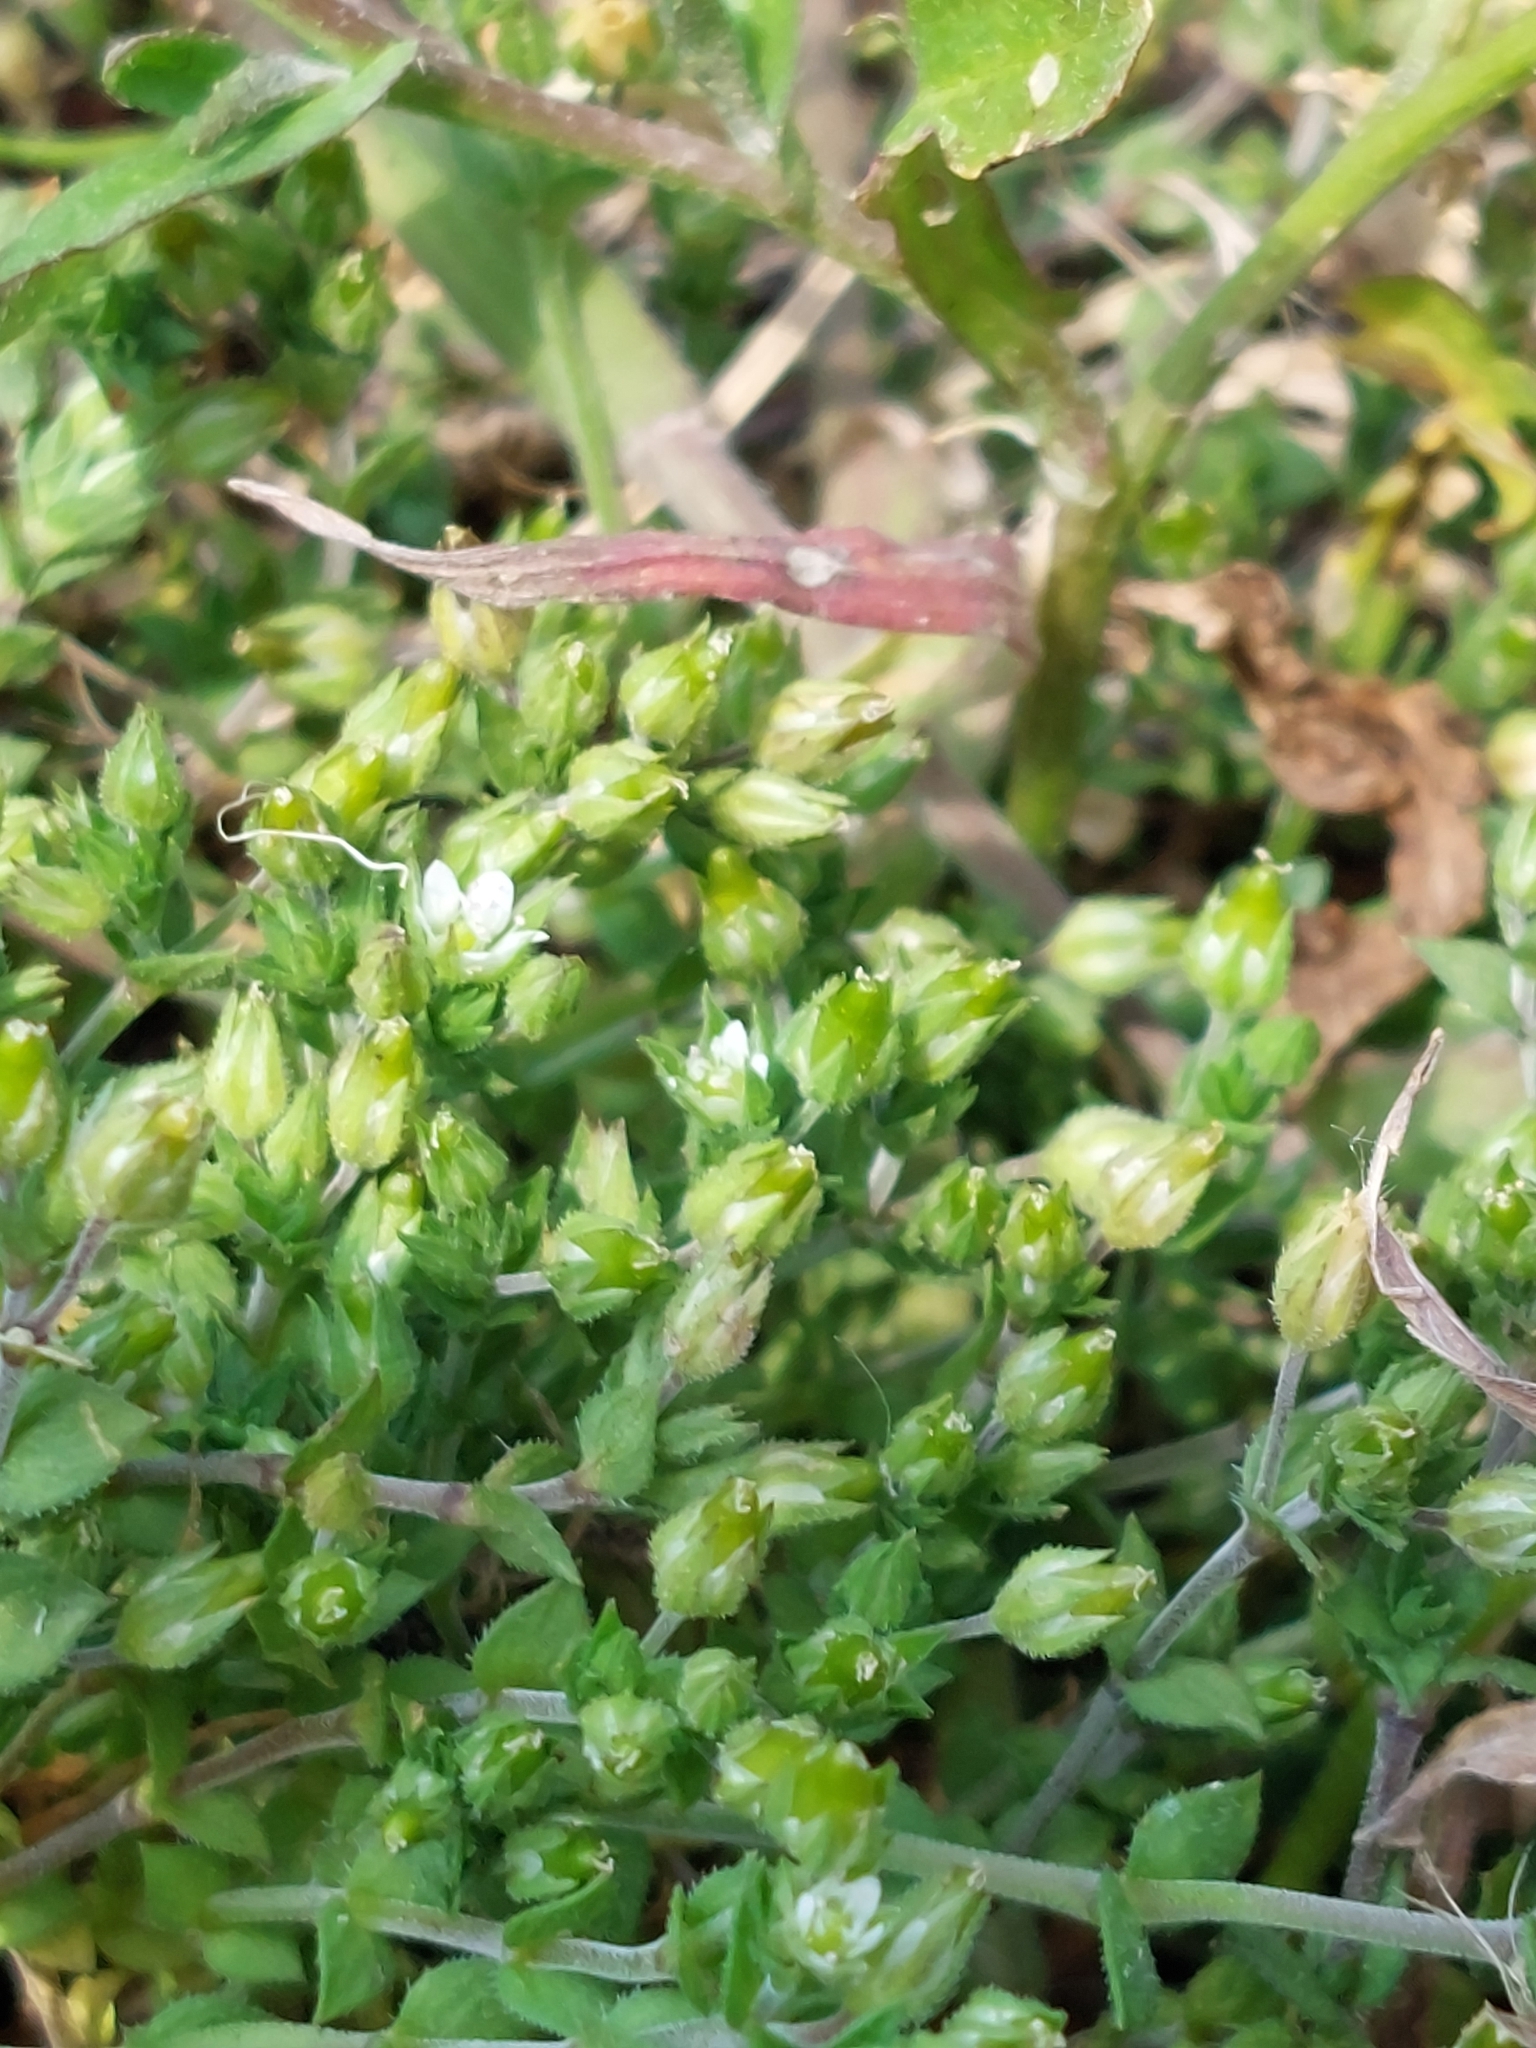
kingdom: Plantae
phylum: Tracheophyta
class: Magnoliopsida
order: Caryophyllales
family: Caryophyllaceae
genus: Arenaria
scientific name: Arenaria serpyllifolia
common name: Thyme-leaved sandwort
